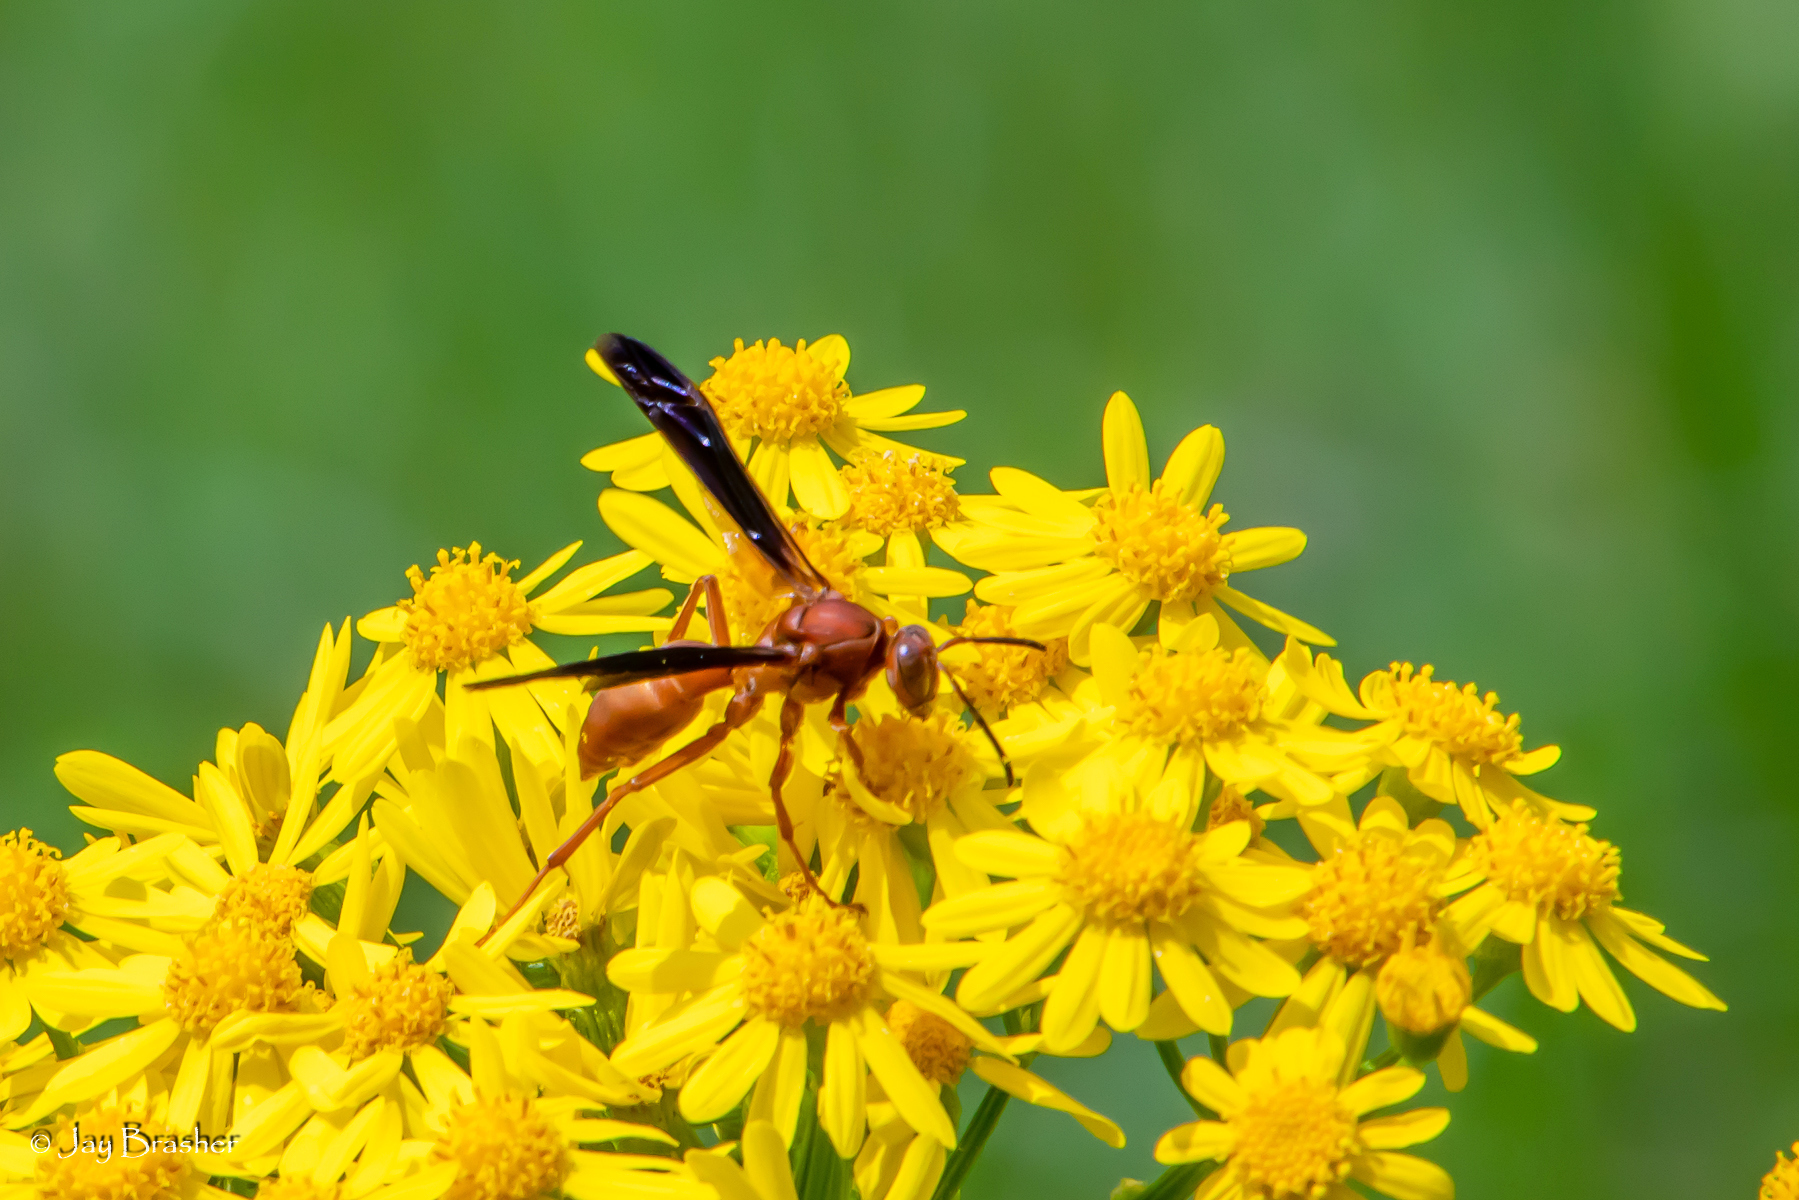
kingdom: Animalia
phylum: Arthropoda
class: Insecta
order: Hymenoptera
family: Eumenidae
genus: Polistes
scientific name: Polistes carolina
